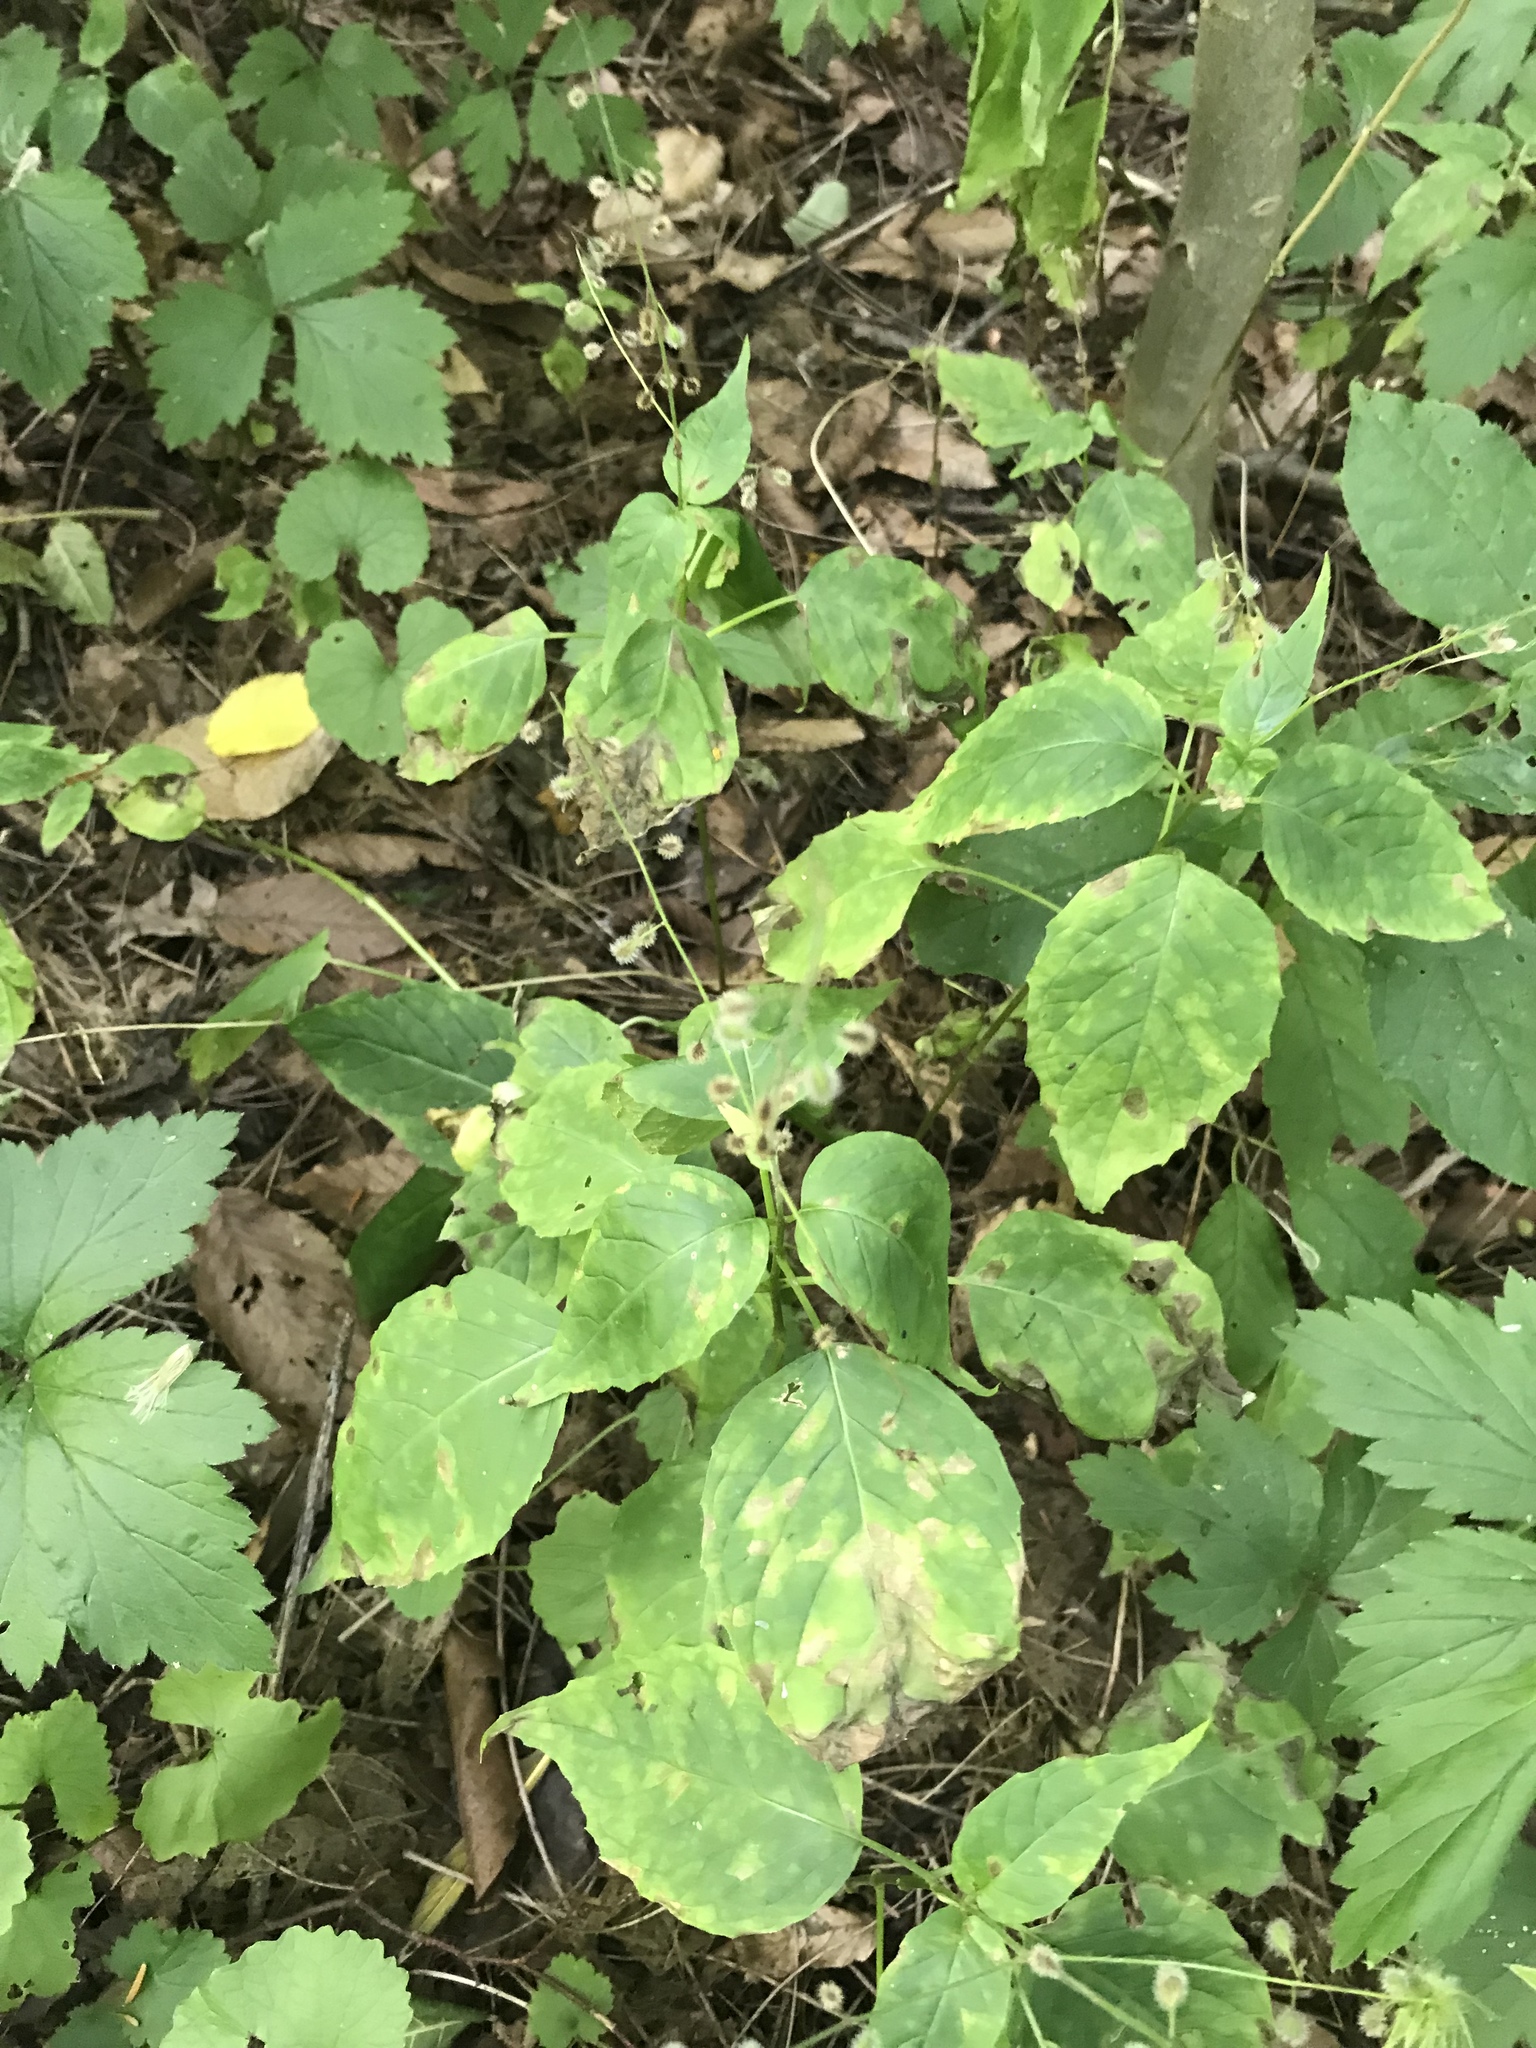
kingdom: Plantae
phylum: Tracheophyta
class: Magnoliopsida
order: Myrtales
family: Onagraceae
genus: Circaea
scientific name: Circaea canadensis
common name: Broad-leaved enchanter's nightshade
